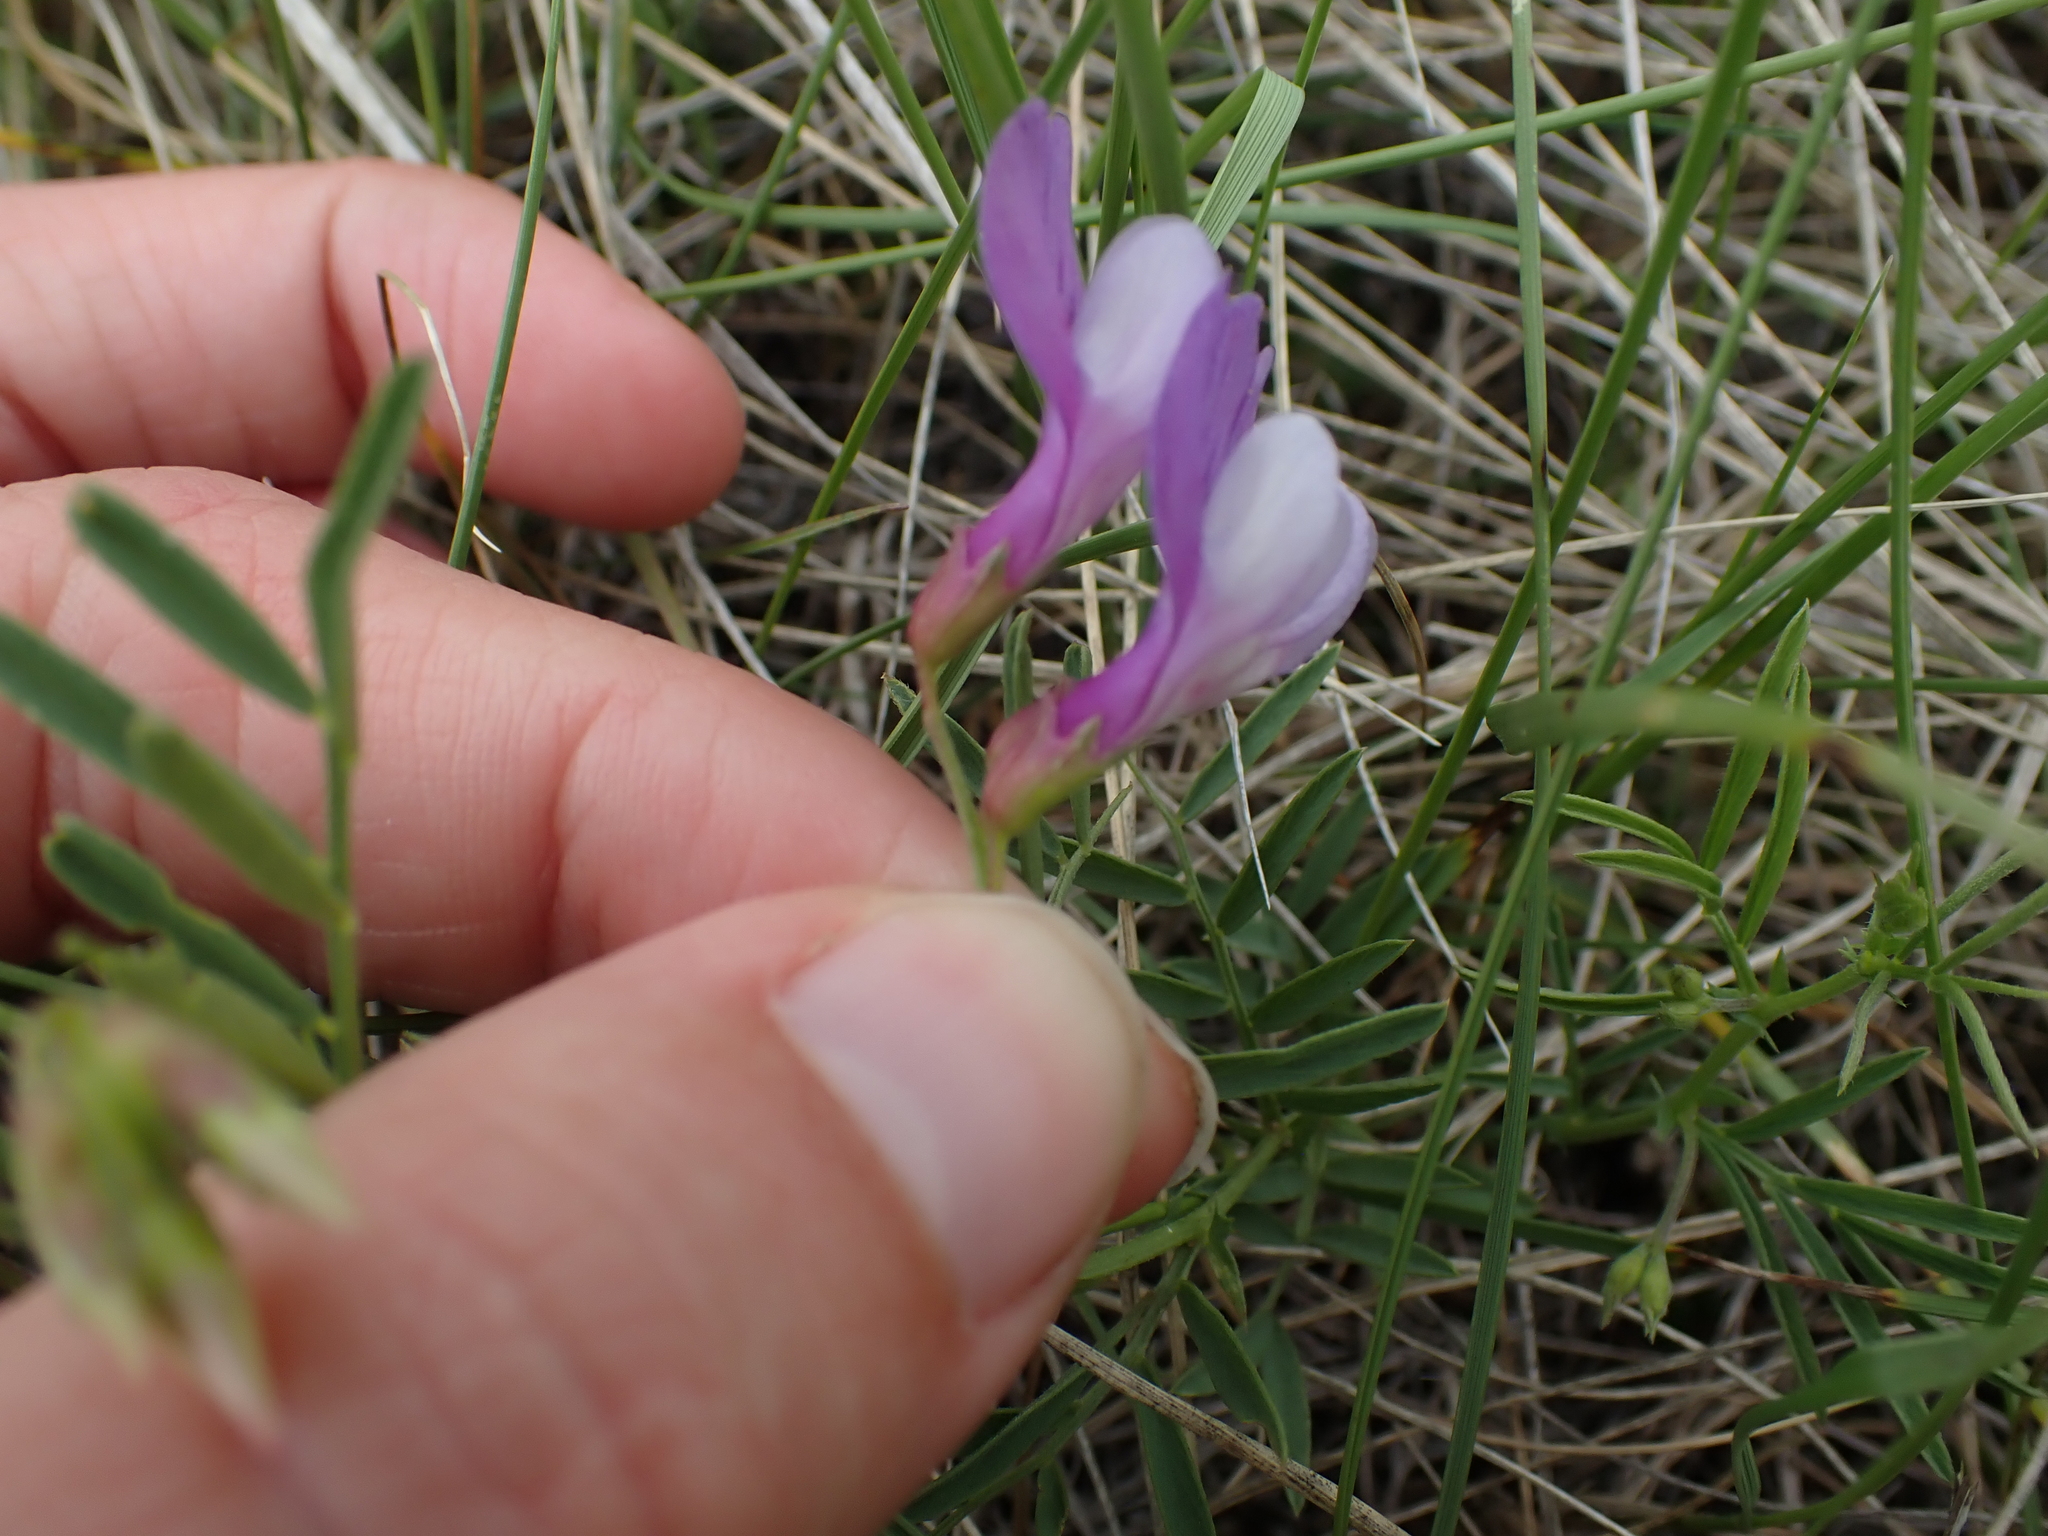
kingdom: Plantae
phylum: Tracheophyta
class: Magnoliopsida
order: Fabales
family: Fabaceae
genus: Vicia
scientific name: Vicia americana
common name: American vetch
